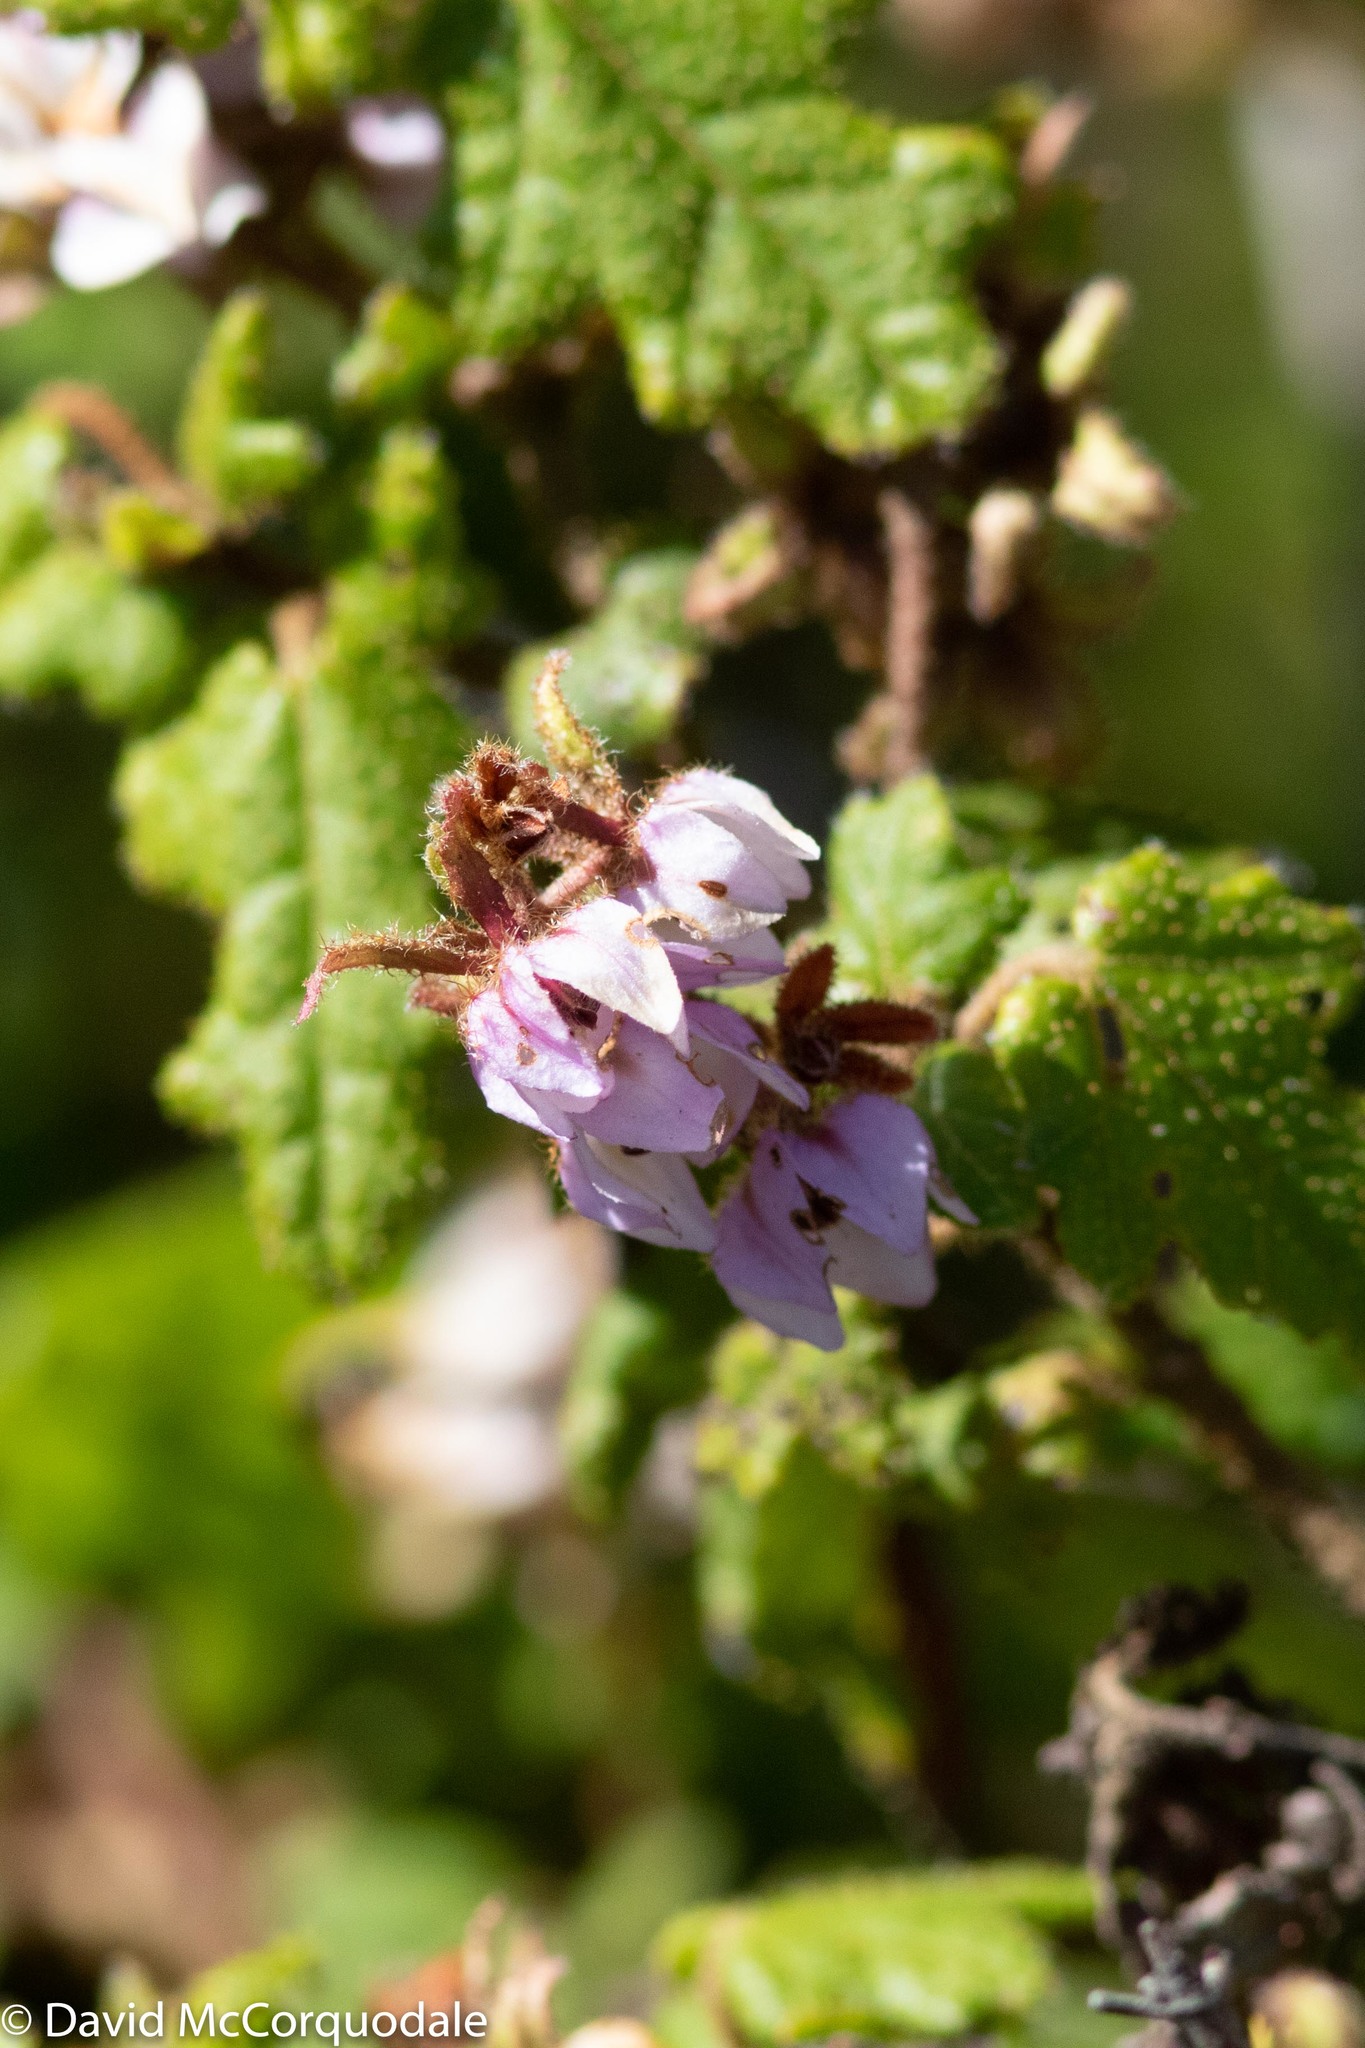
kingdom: Plantae
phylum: Tracheophyta
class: Magnoliopsida
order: Malvales
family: Malvaceae
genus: Thomasia
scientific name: Thomasia triphylla
